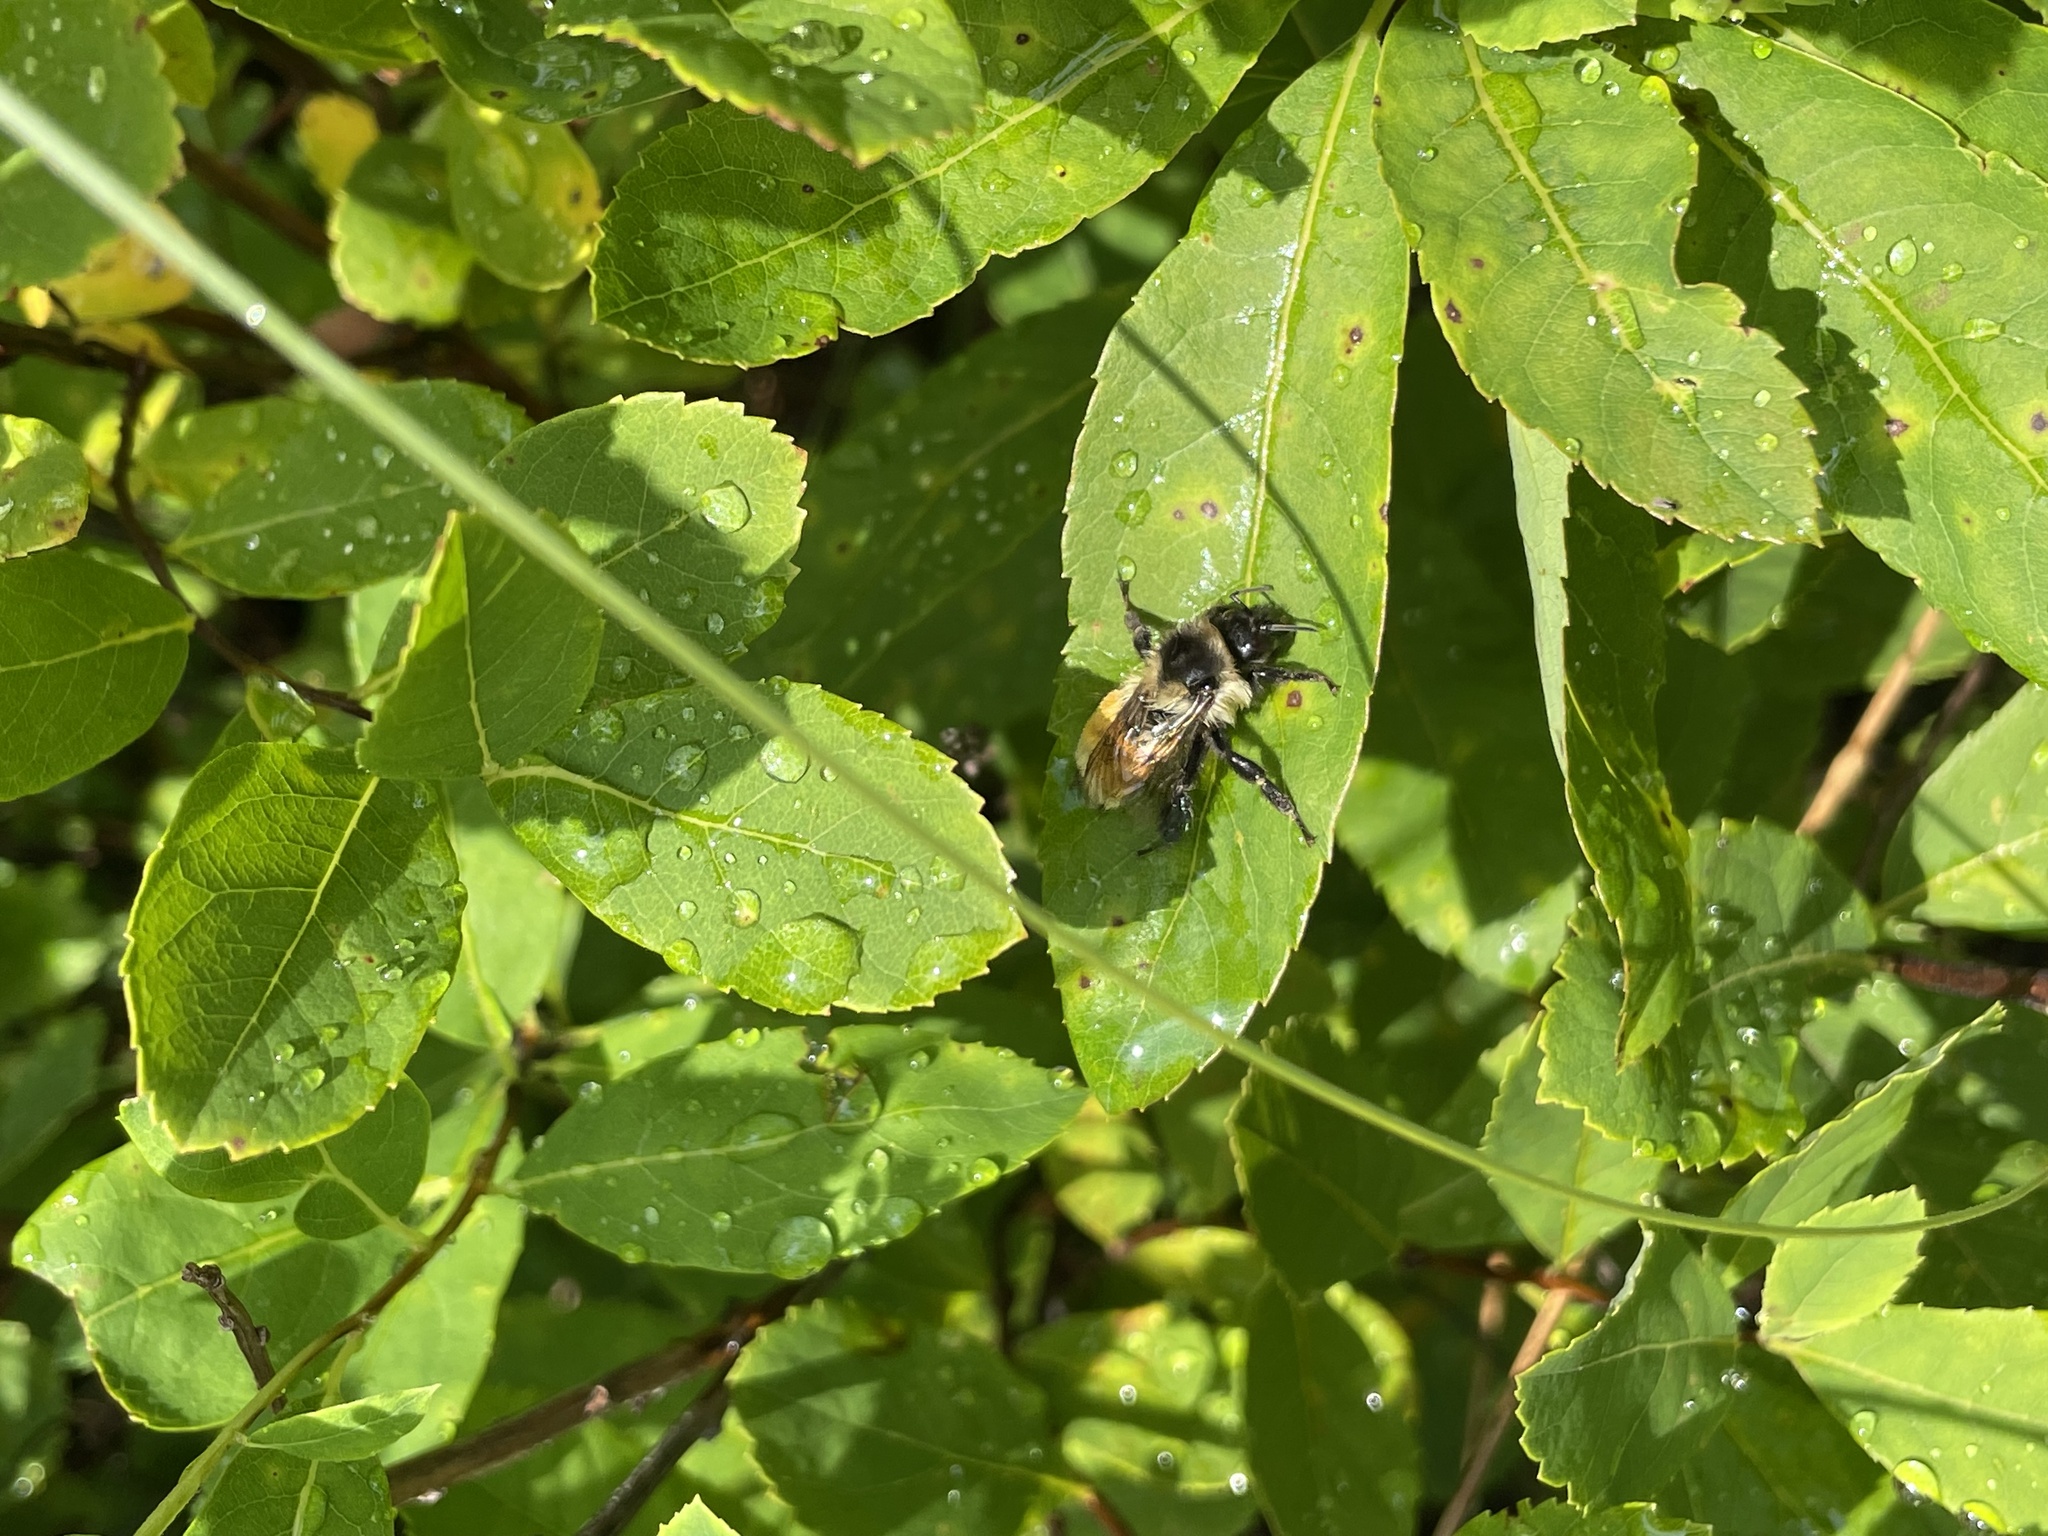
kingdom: Animalia
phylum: Arthropoda
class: Insecta
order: Hymenoptera
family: Apidae
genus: Bombus
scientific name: Bombus ternarius
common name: Tri-colored bumble bee
